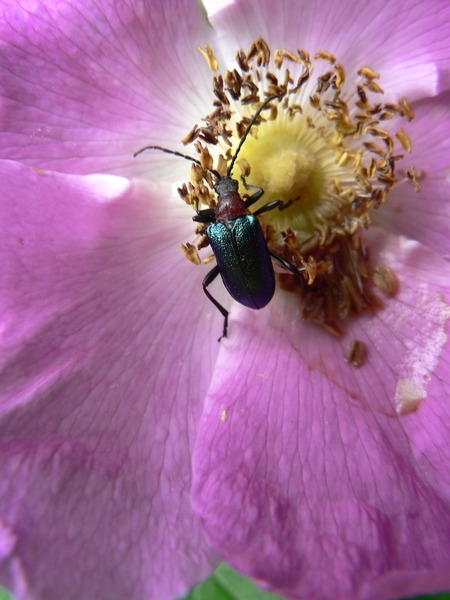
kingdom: Animalia
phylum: Arthropoda
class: Insecta
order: Coleoptera
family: Cerambycidae
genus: Gaurotes
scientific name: Gaurotes virginea
